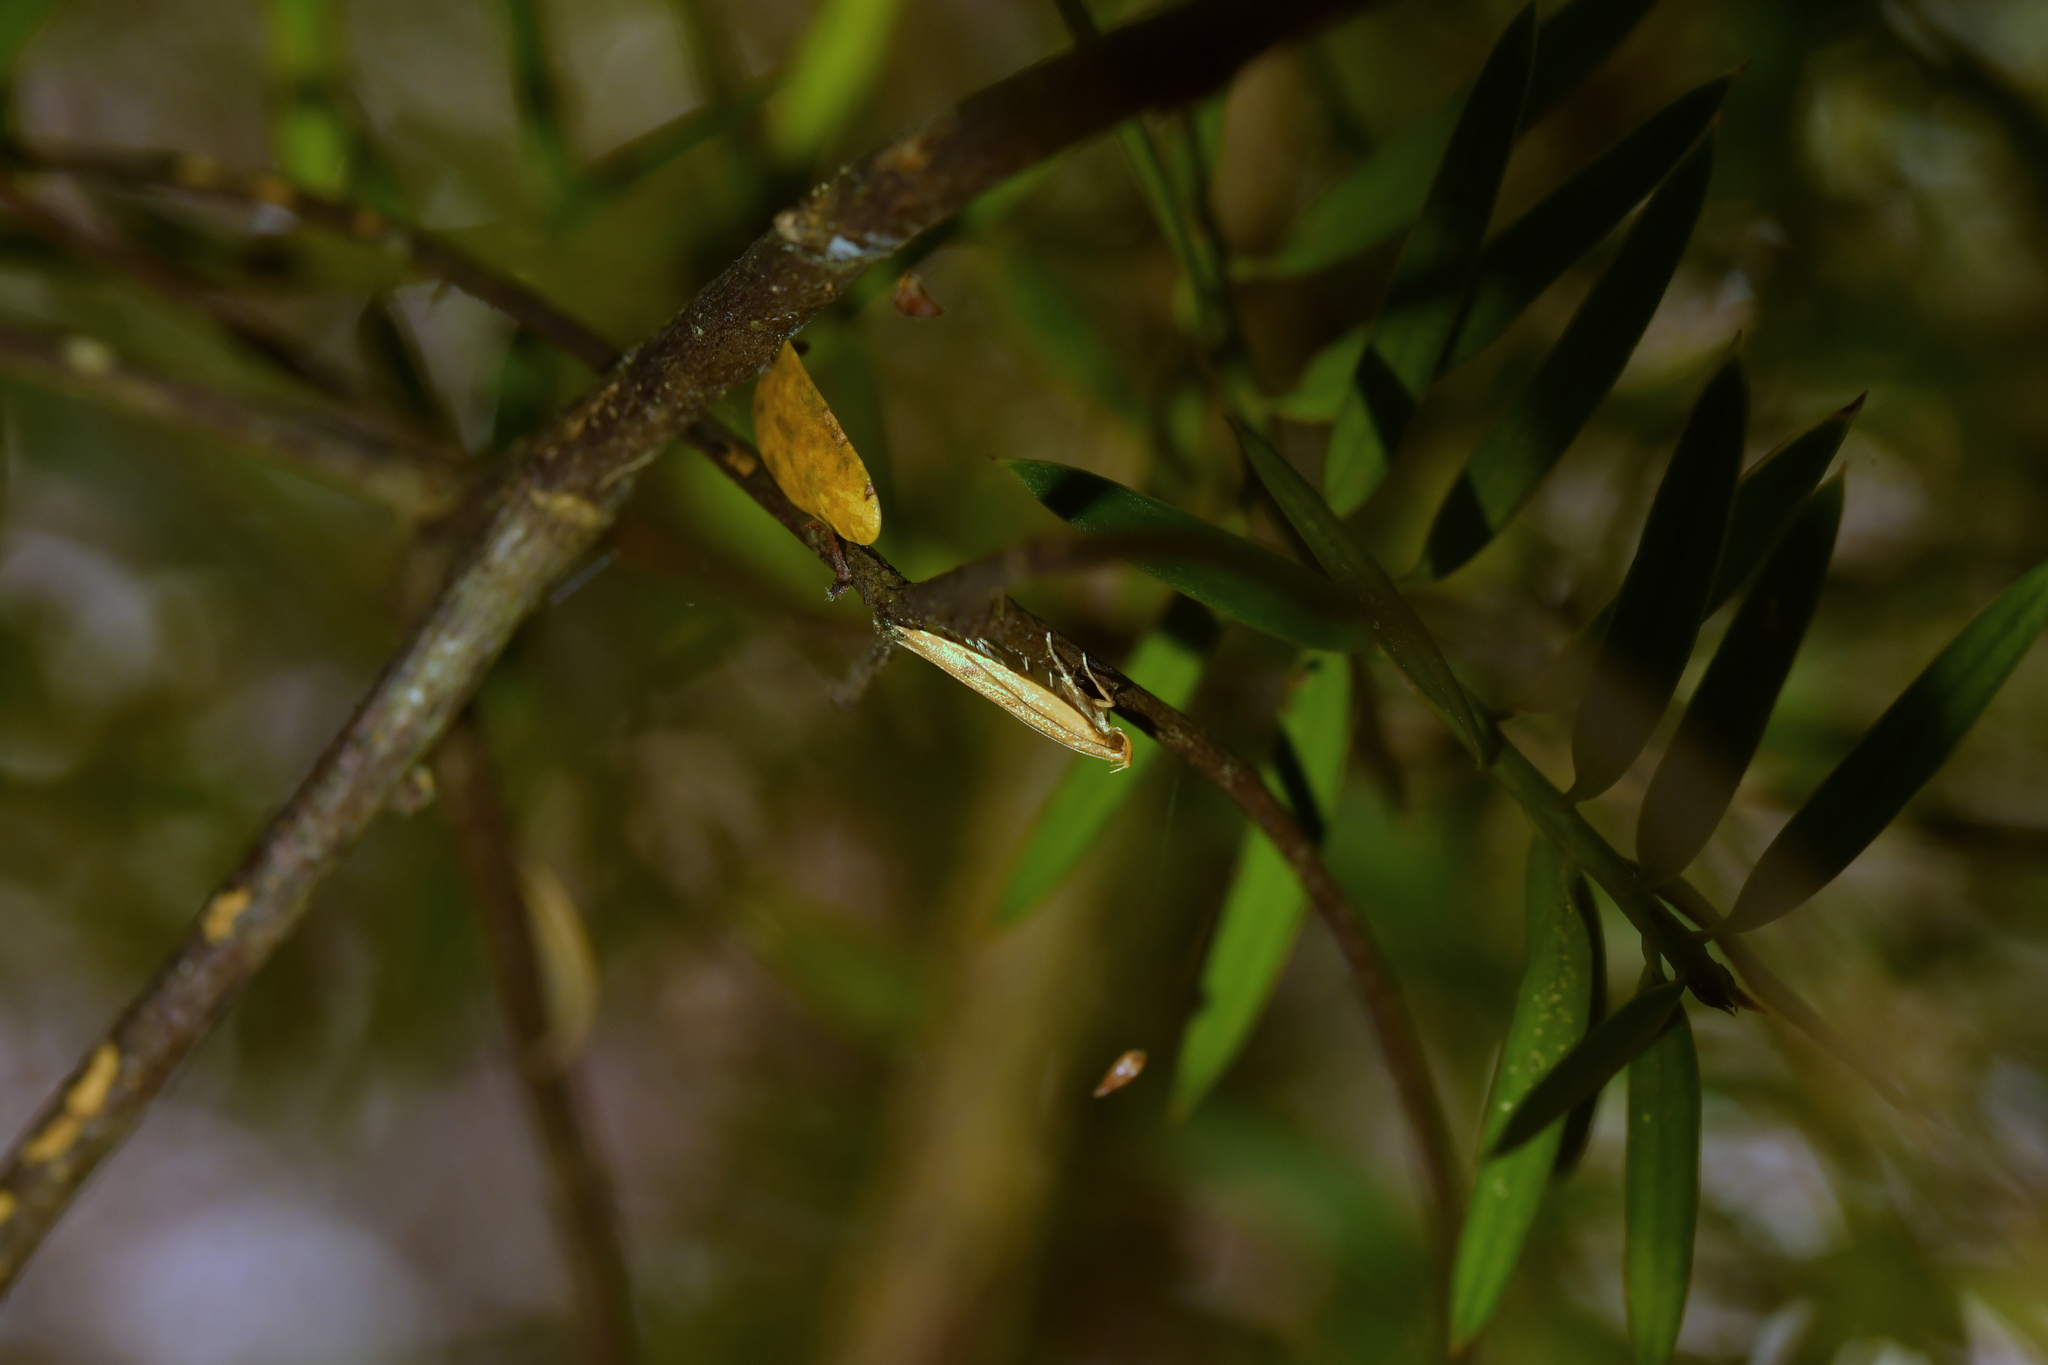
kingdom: Animalia
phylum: Arthropoda
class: Insecta
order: Lepidoptera
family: Oecophoridae
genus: Gymnobathra
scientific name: Gymnobathra sarcoxantha
